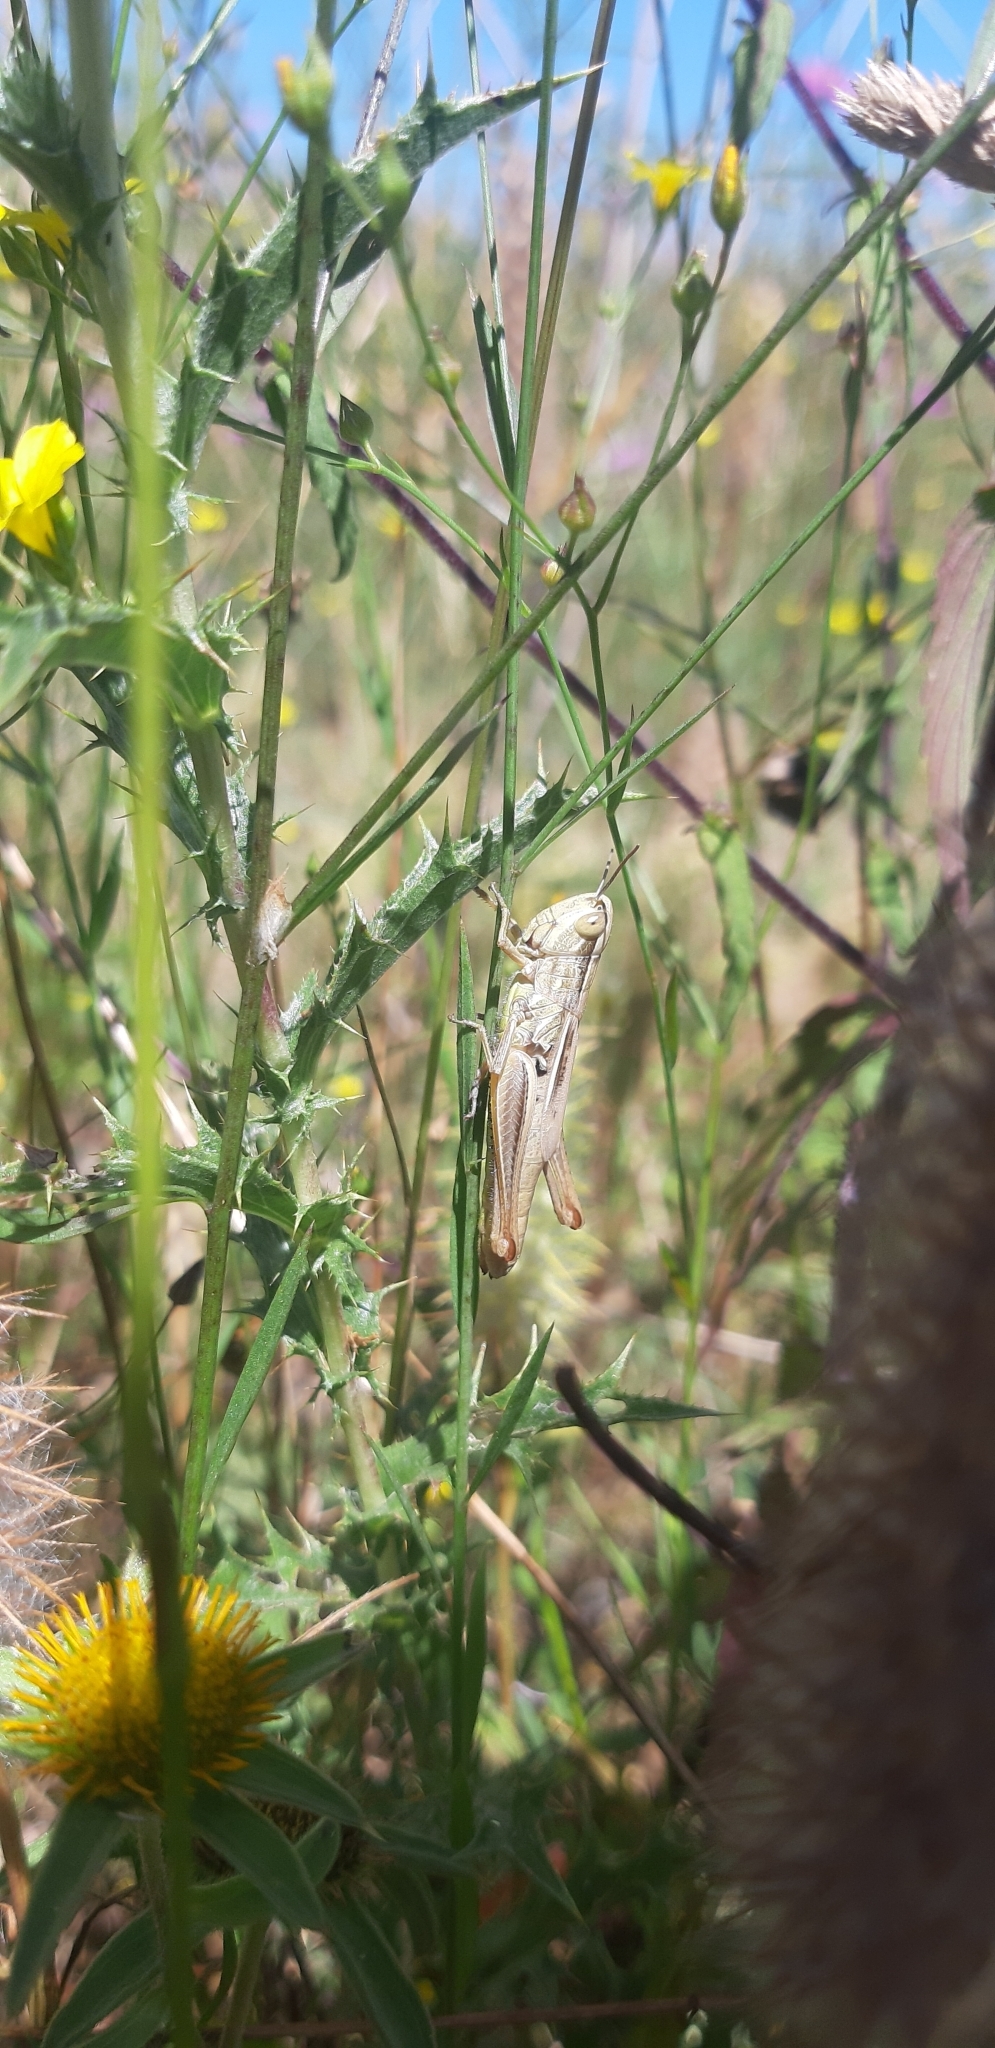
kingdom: Animalia
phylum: Arthropoda
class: Insecta
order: Orthoptera
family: Acrididae
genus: Euchorthippus
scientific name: Euchorthippus declivus
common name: Common straw grasshopper
